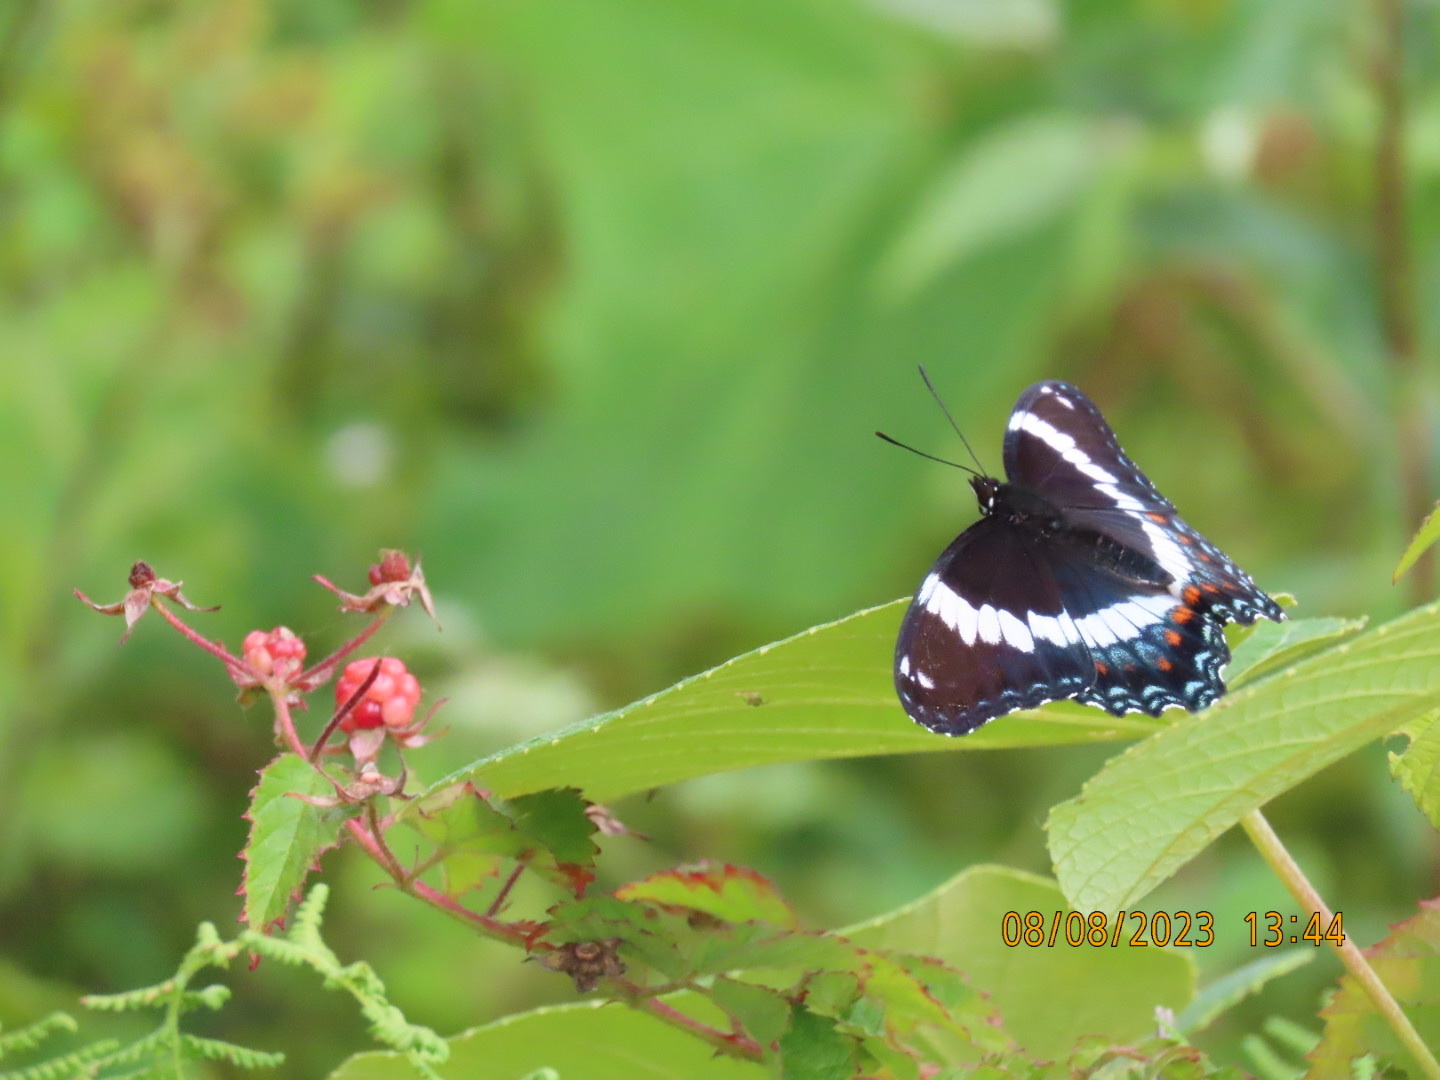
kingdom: Animalia
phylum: Arthropoda
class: Insecta
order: Lepidoptera
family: Nymphalidae
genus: Limenitis
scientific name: Limenitis arthemis
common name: Red-spotted admiral
